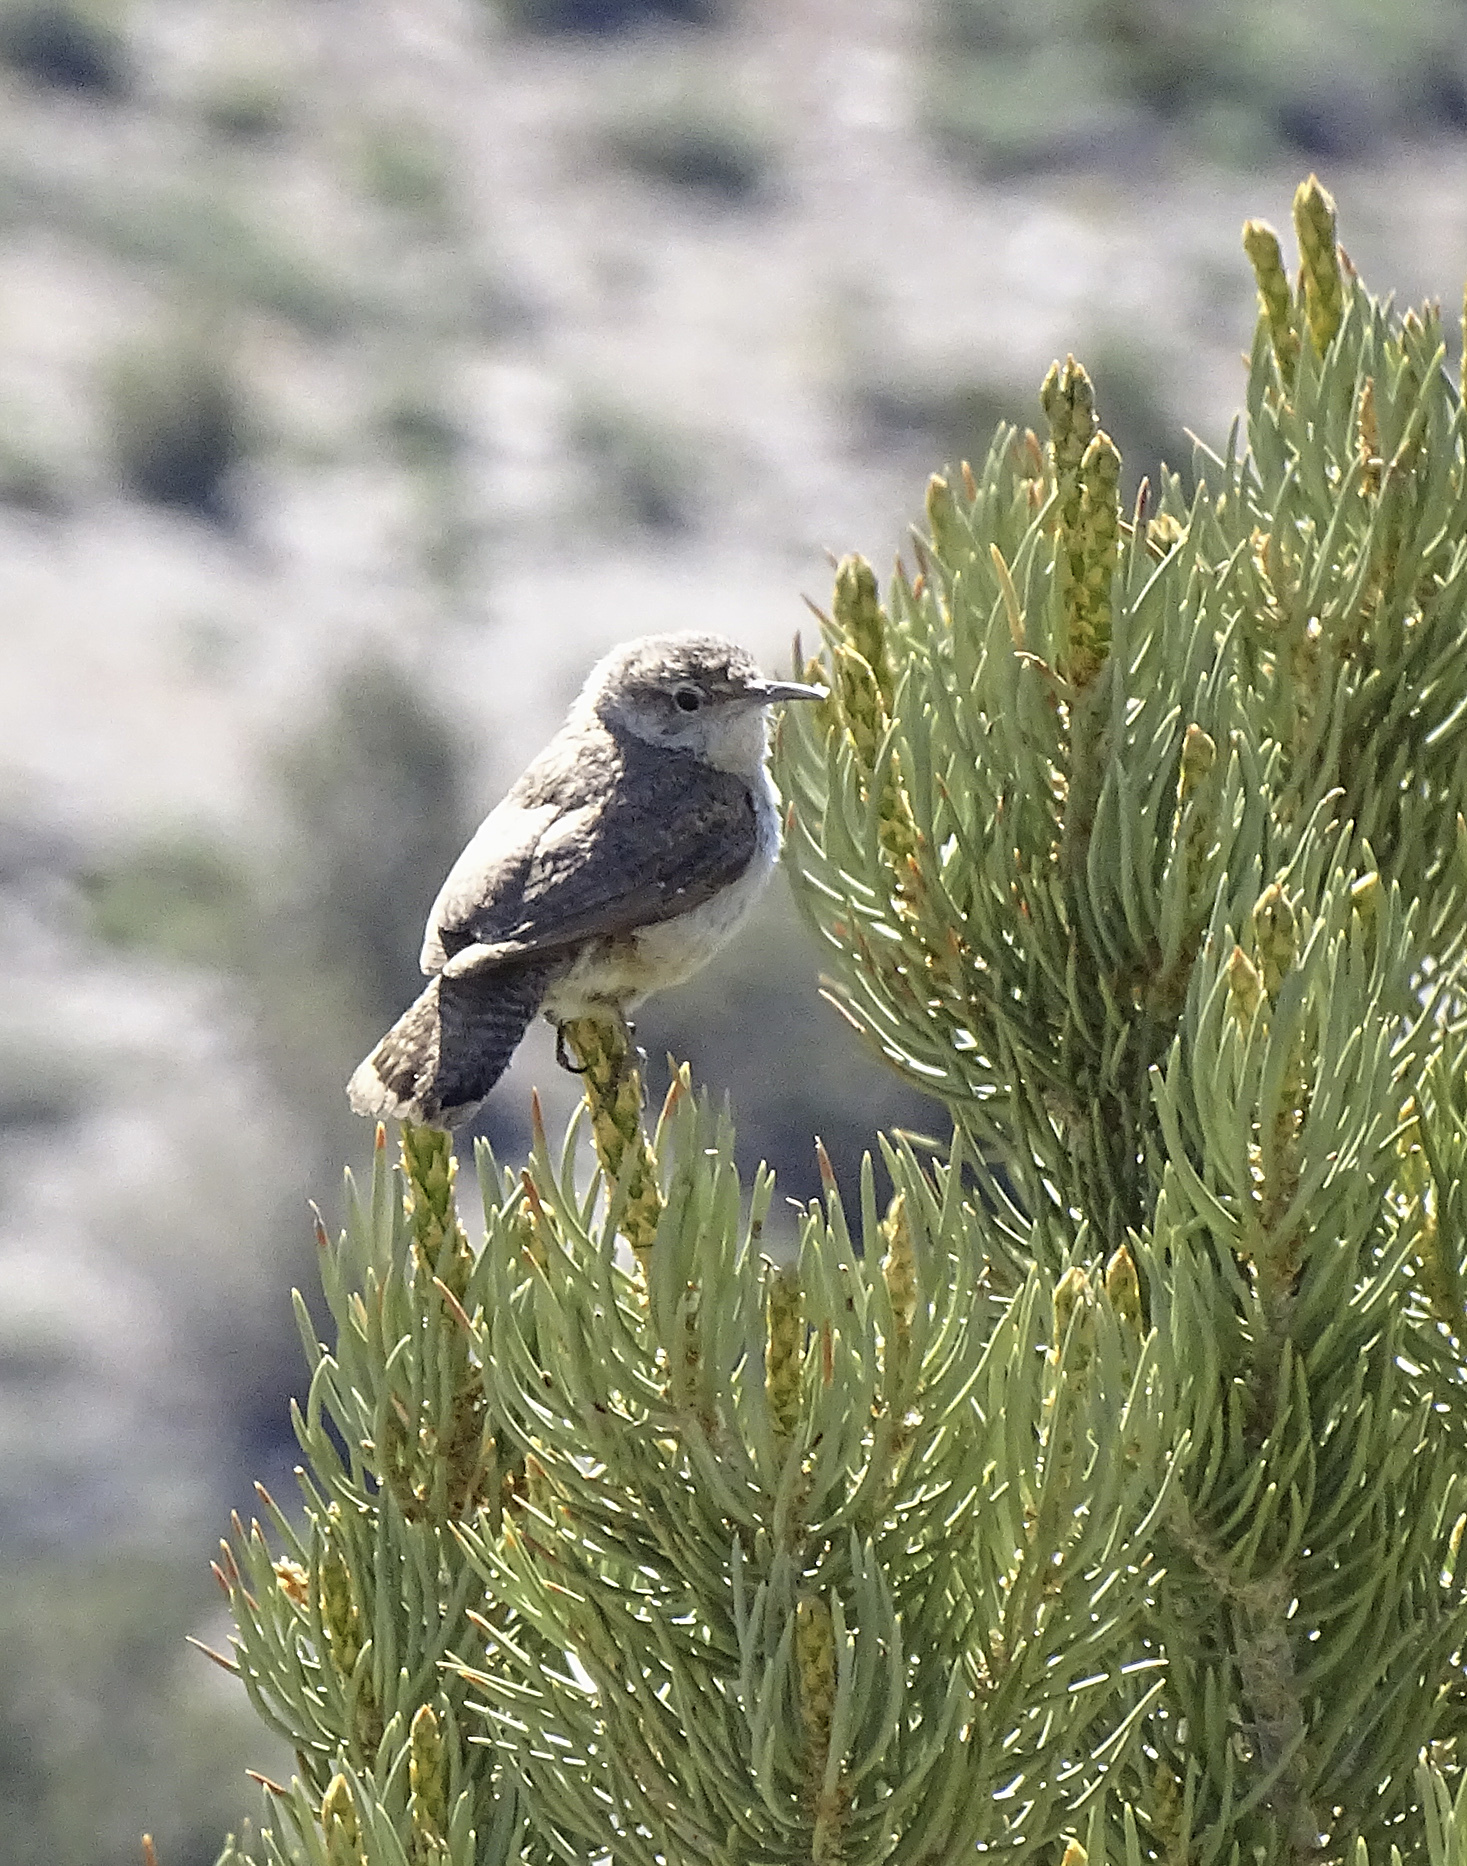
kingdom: Animalia
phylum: Chordata
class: Aves
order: Passeriformes
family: Troglodytidae
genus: Salpinctes
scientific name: Salpinctes obsoletus
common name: Rock wren
